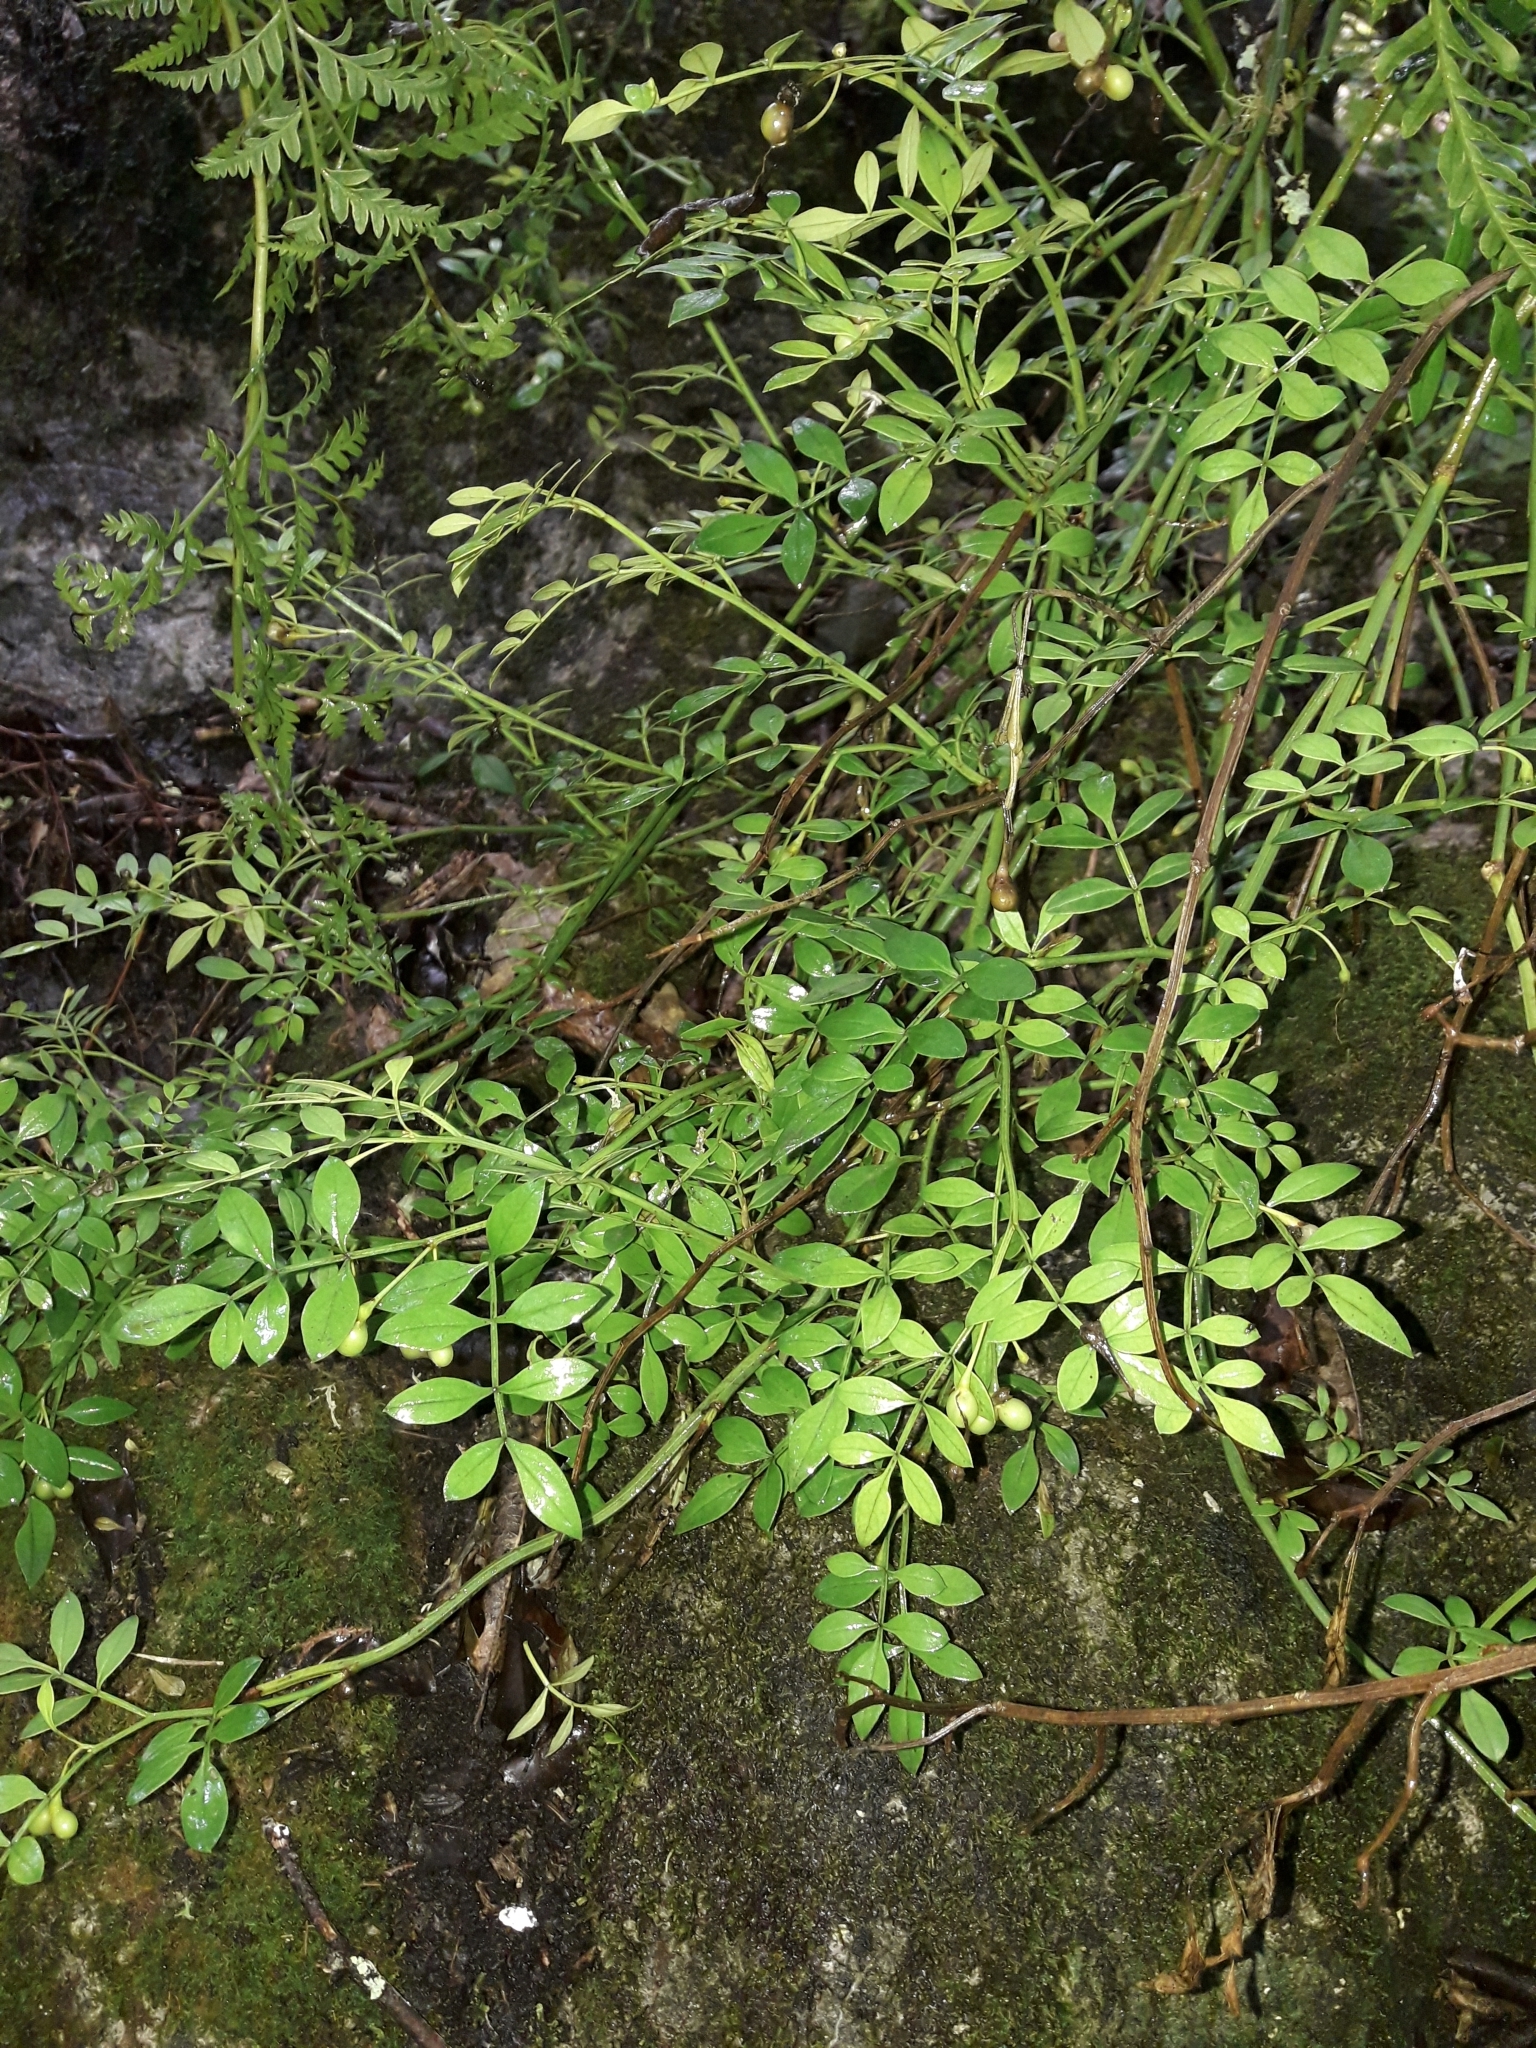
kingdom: Plantae
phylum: Tracheophyta
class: Magnoliopsida
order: Lamiales
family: Oleaceae
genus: Chrysojasminum
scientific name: Chrysojasminum humile
